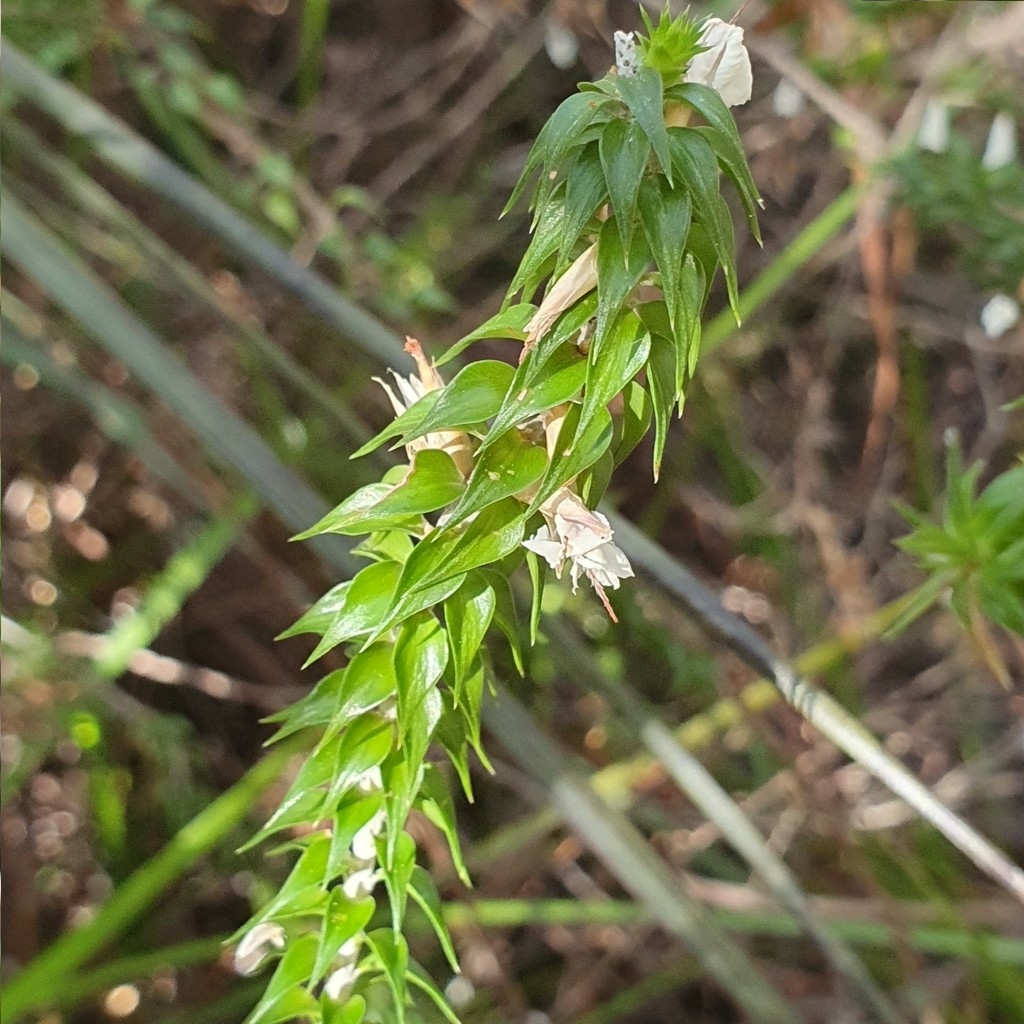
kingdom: Plantae
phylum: Tracheophyta
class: Magnoliopsida
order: Ericales
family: Ericaceae
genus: Woollsia
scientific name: Woollsia pungens
